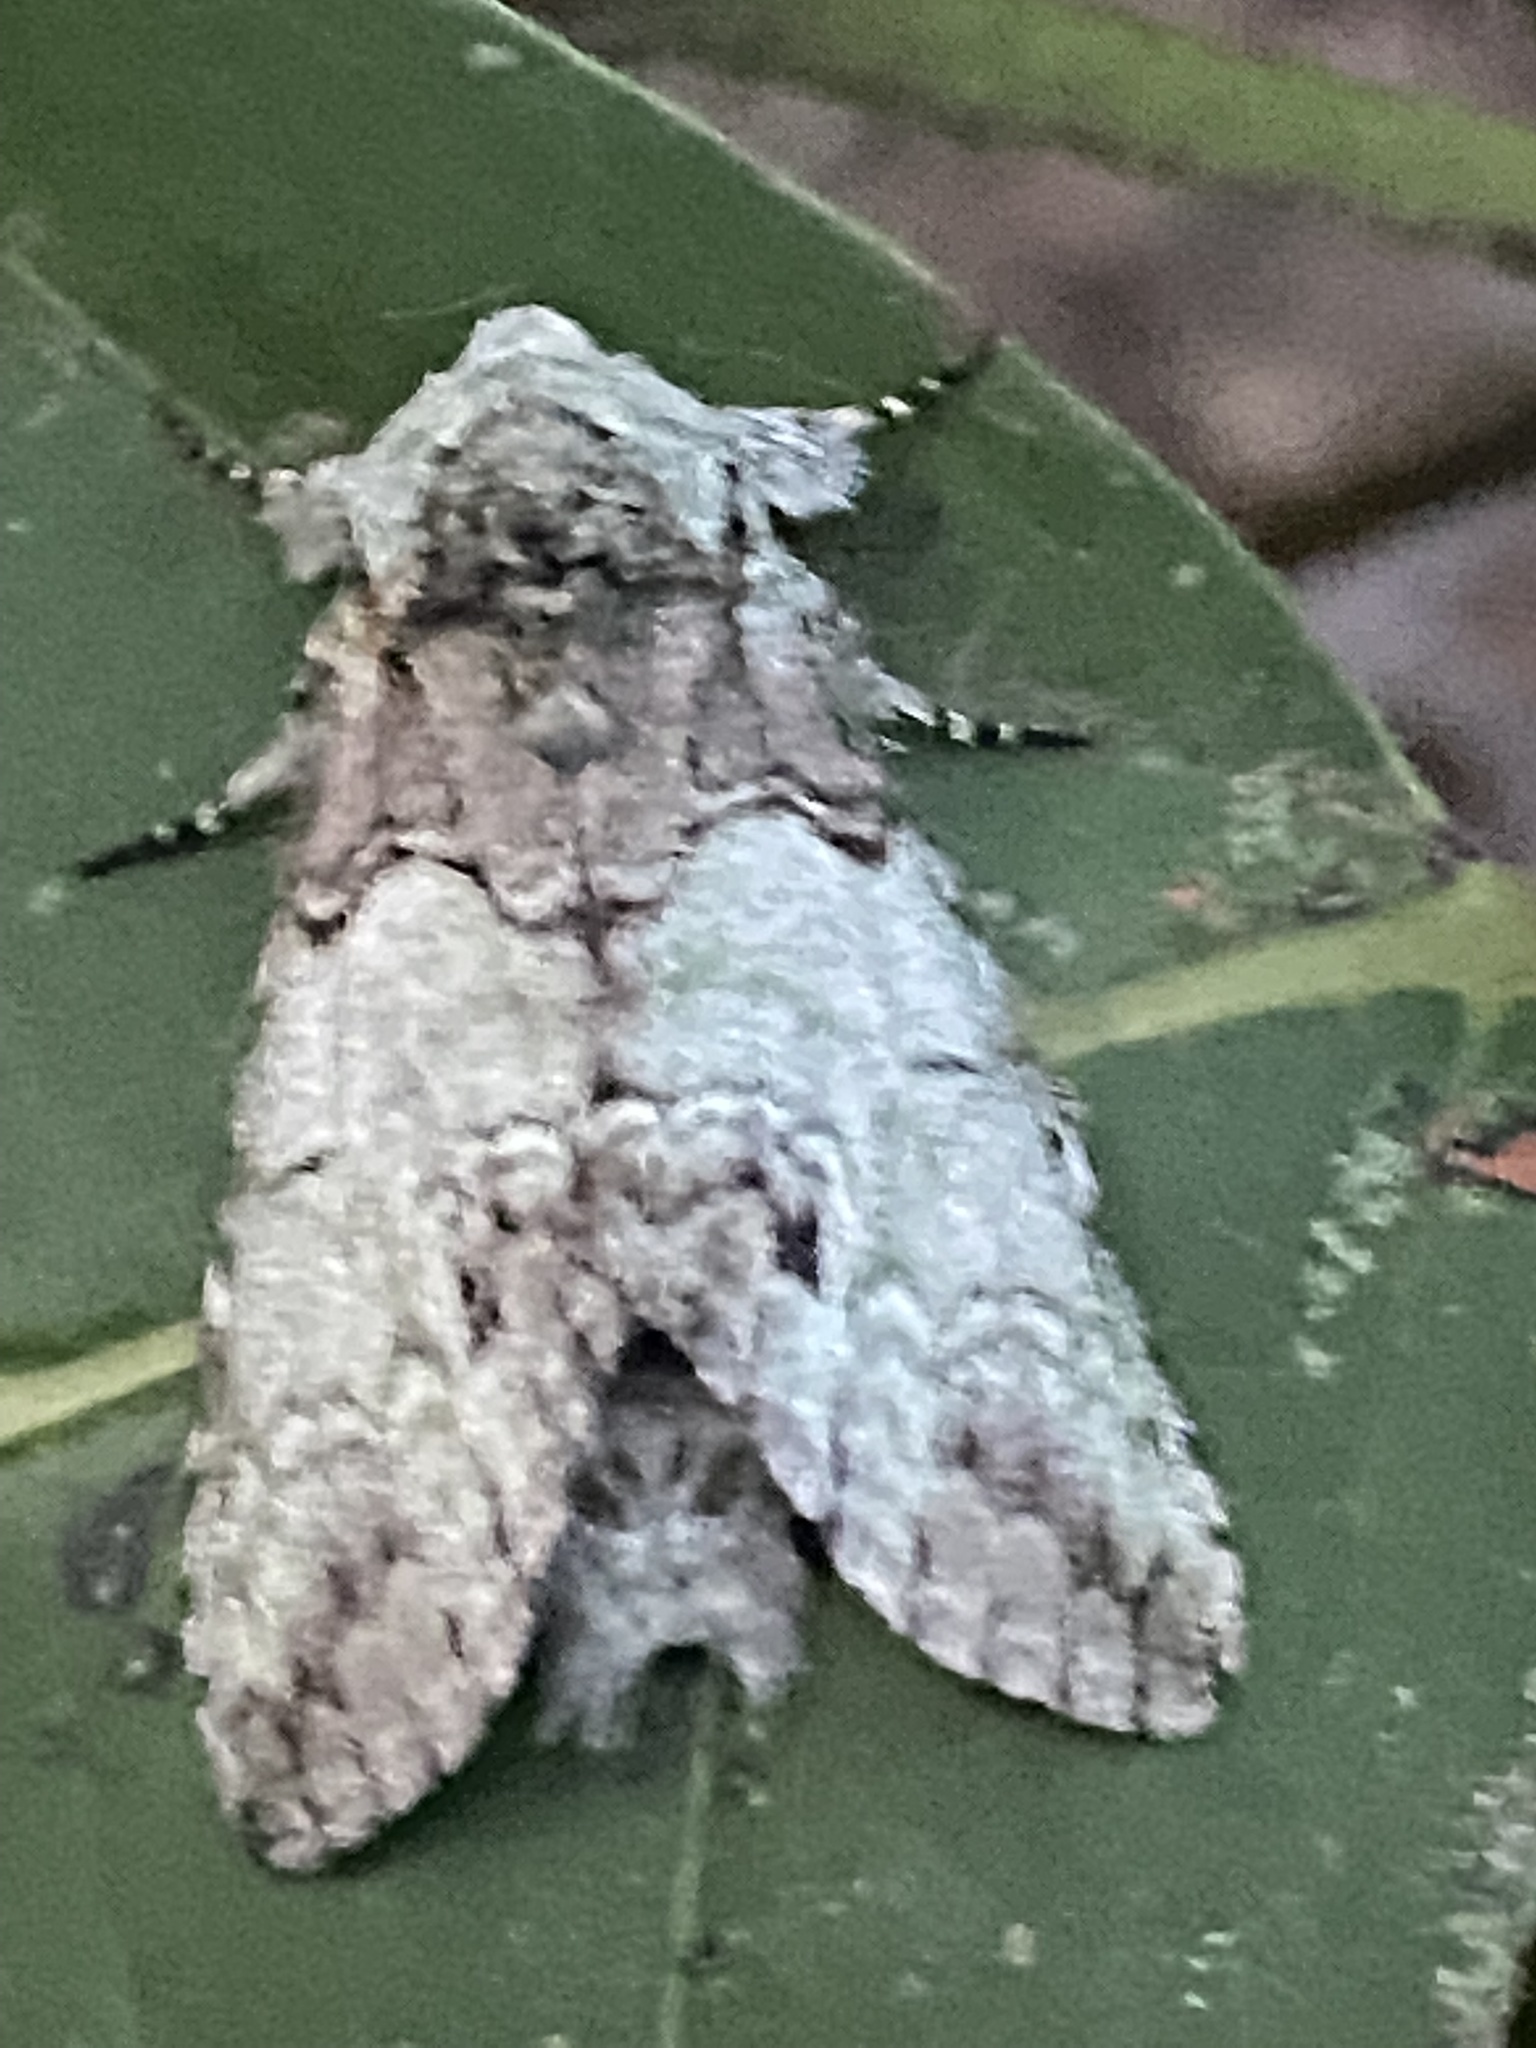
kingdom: Animalia
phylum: Arthropoda
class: Insecta
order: Lepidoptera
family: Notodontidae
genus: Macrurocampa
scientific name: Macrurocampa marthesia
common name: Mottled prominent
